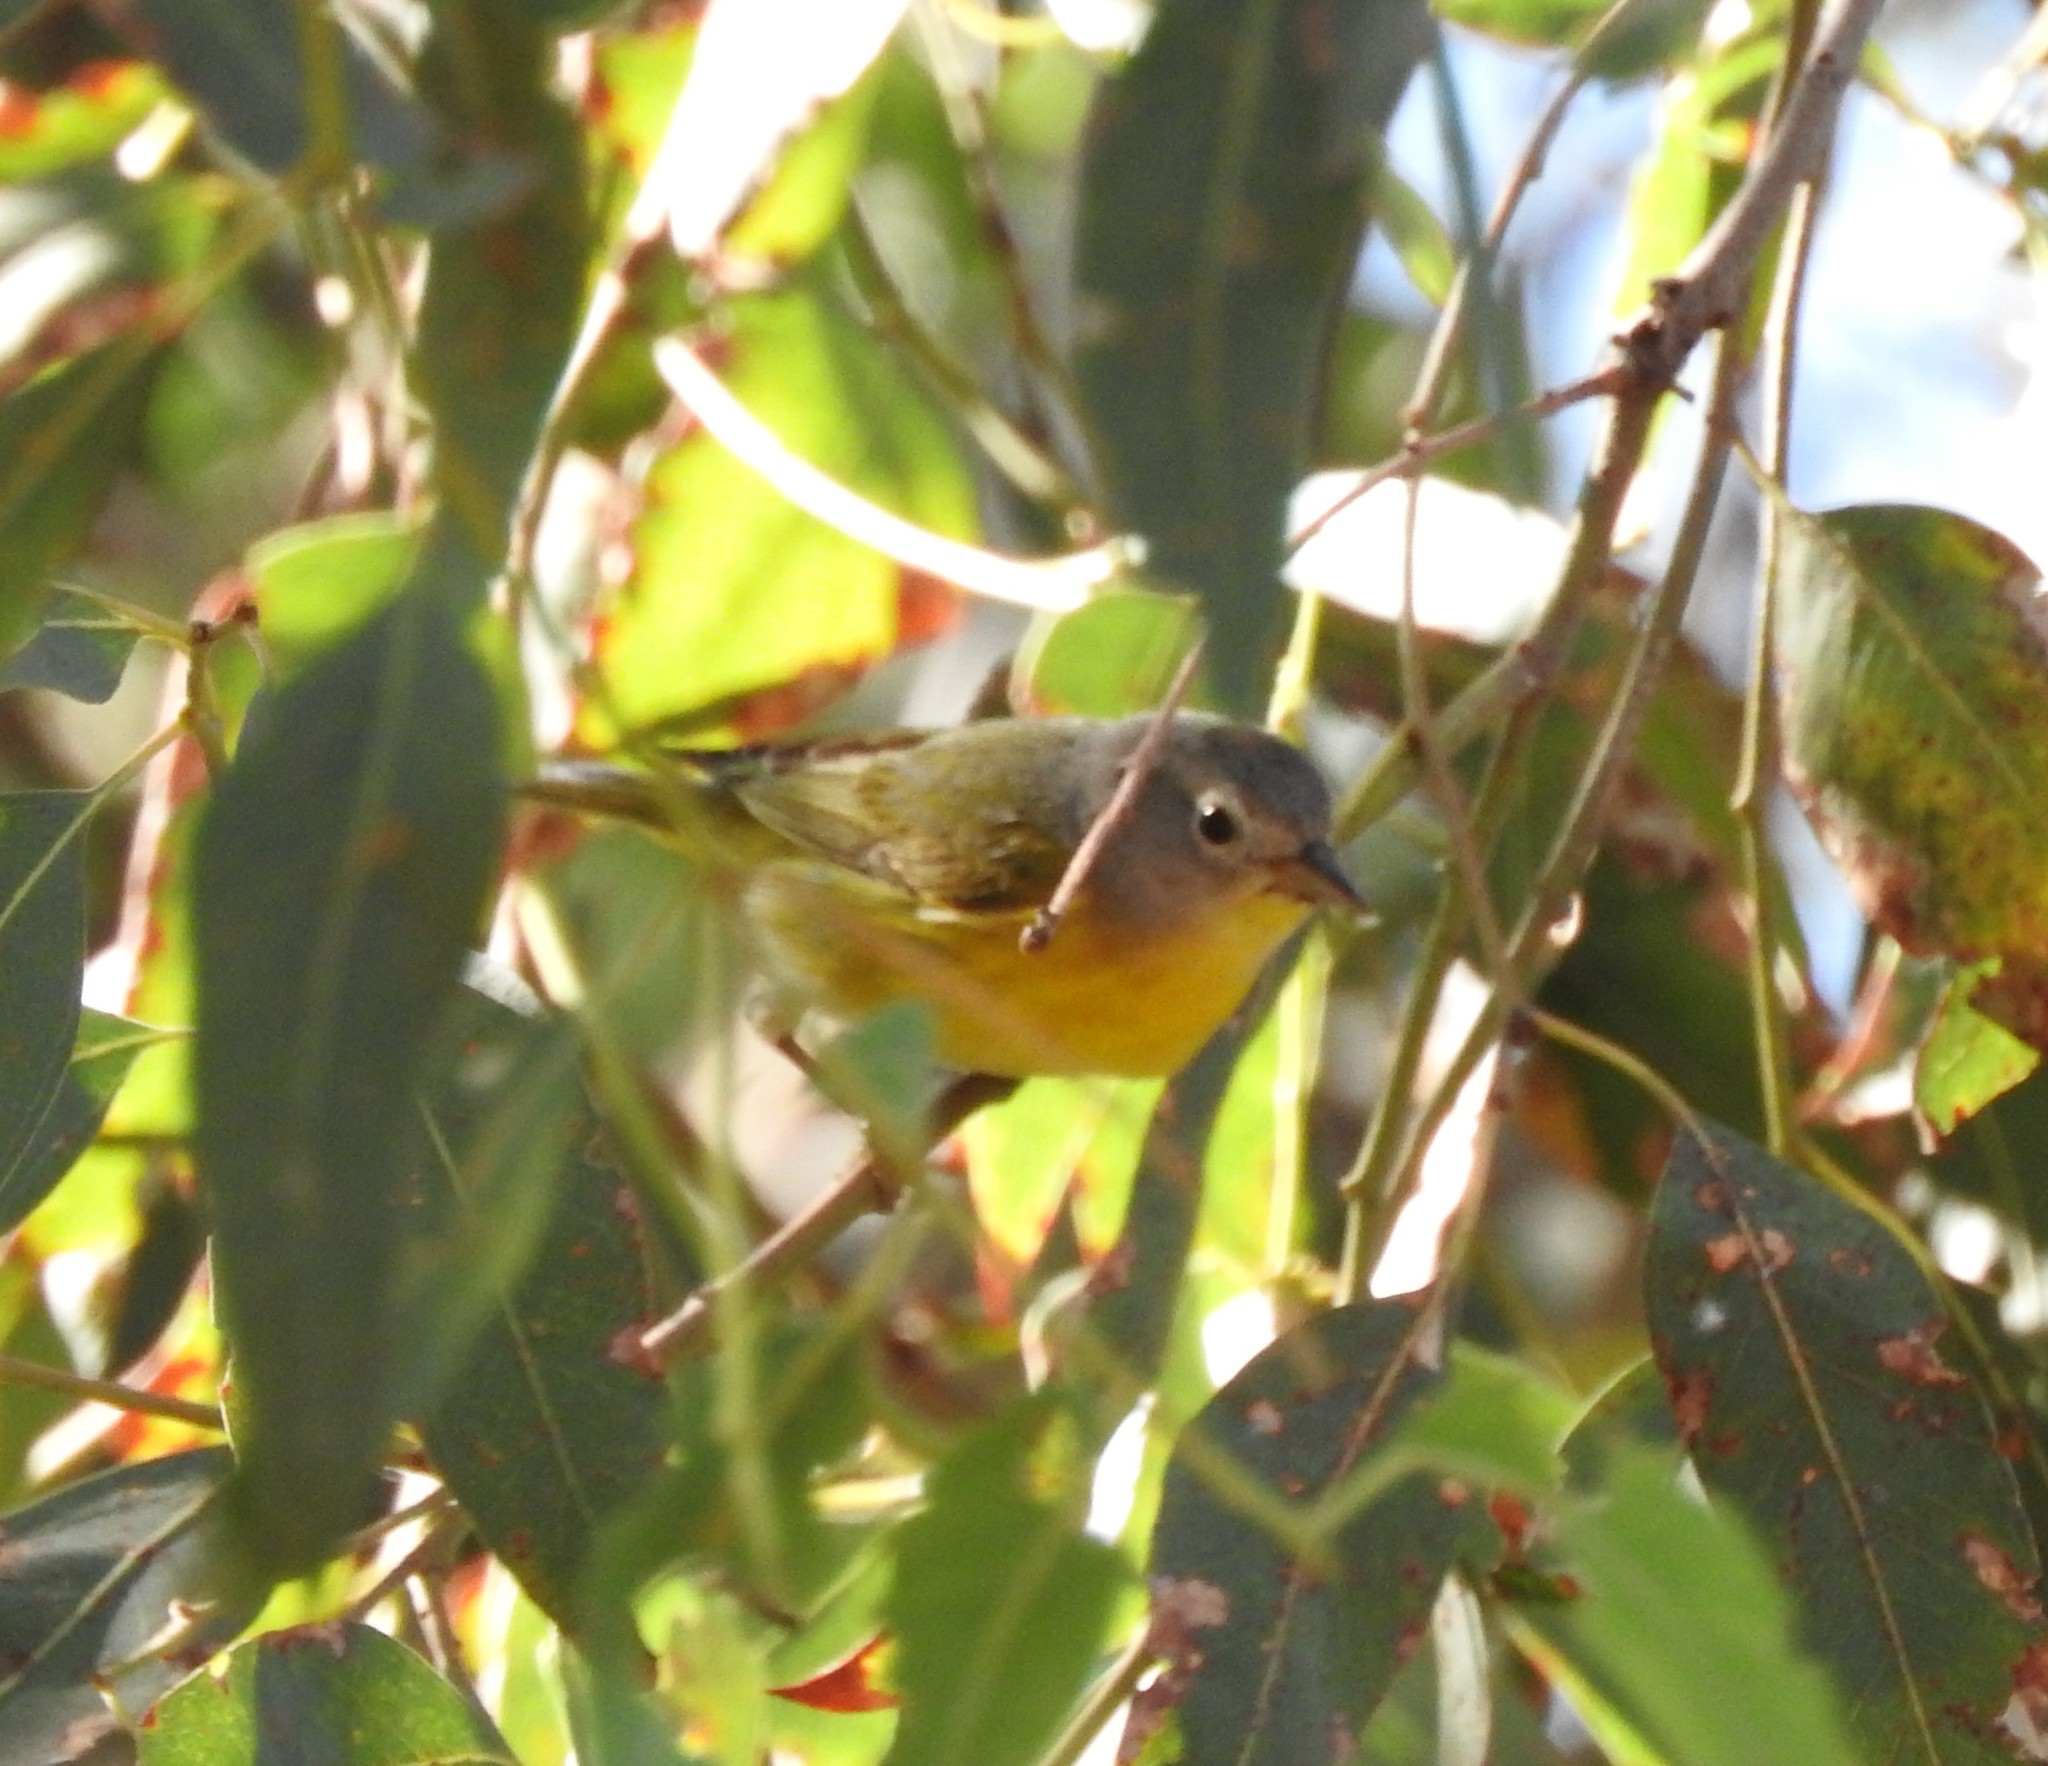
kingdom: Animalia
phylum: Chordata
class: Aves
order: Passeriformes
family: Parulidae
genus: Leiothlypis
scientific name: Leiothlypis ruficapilla
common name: Nashville warbler
